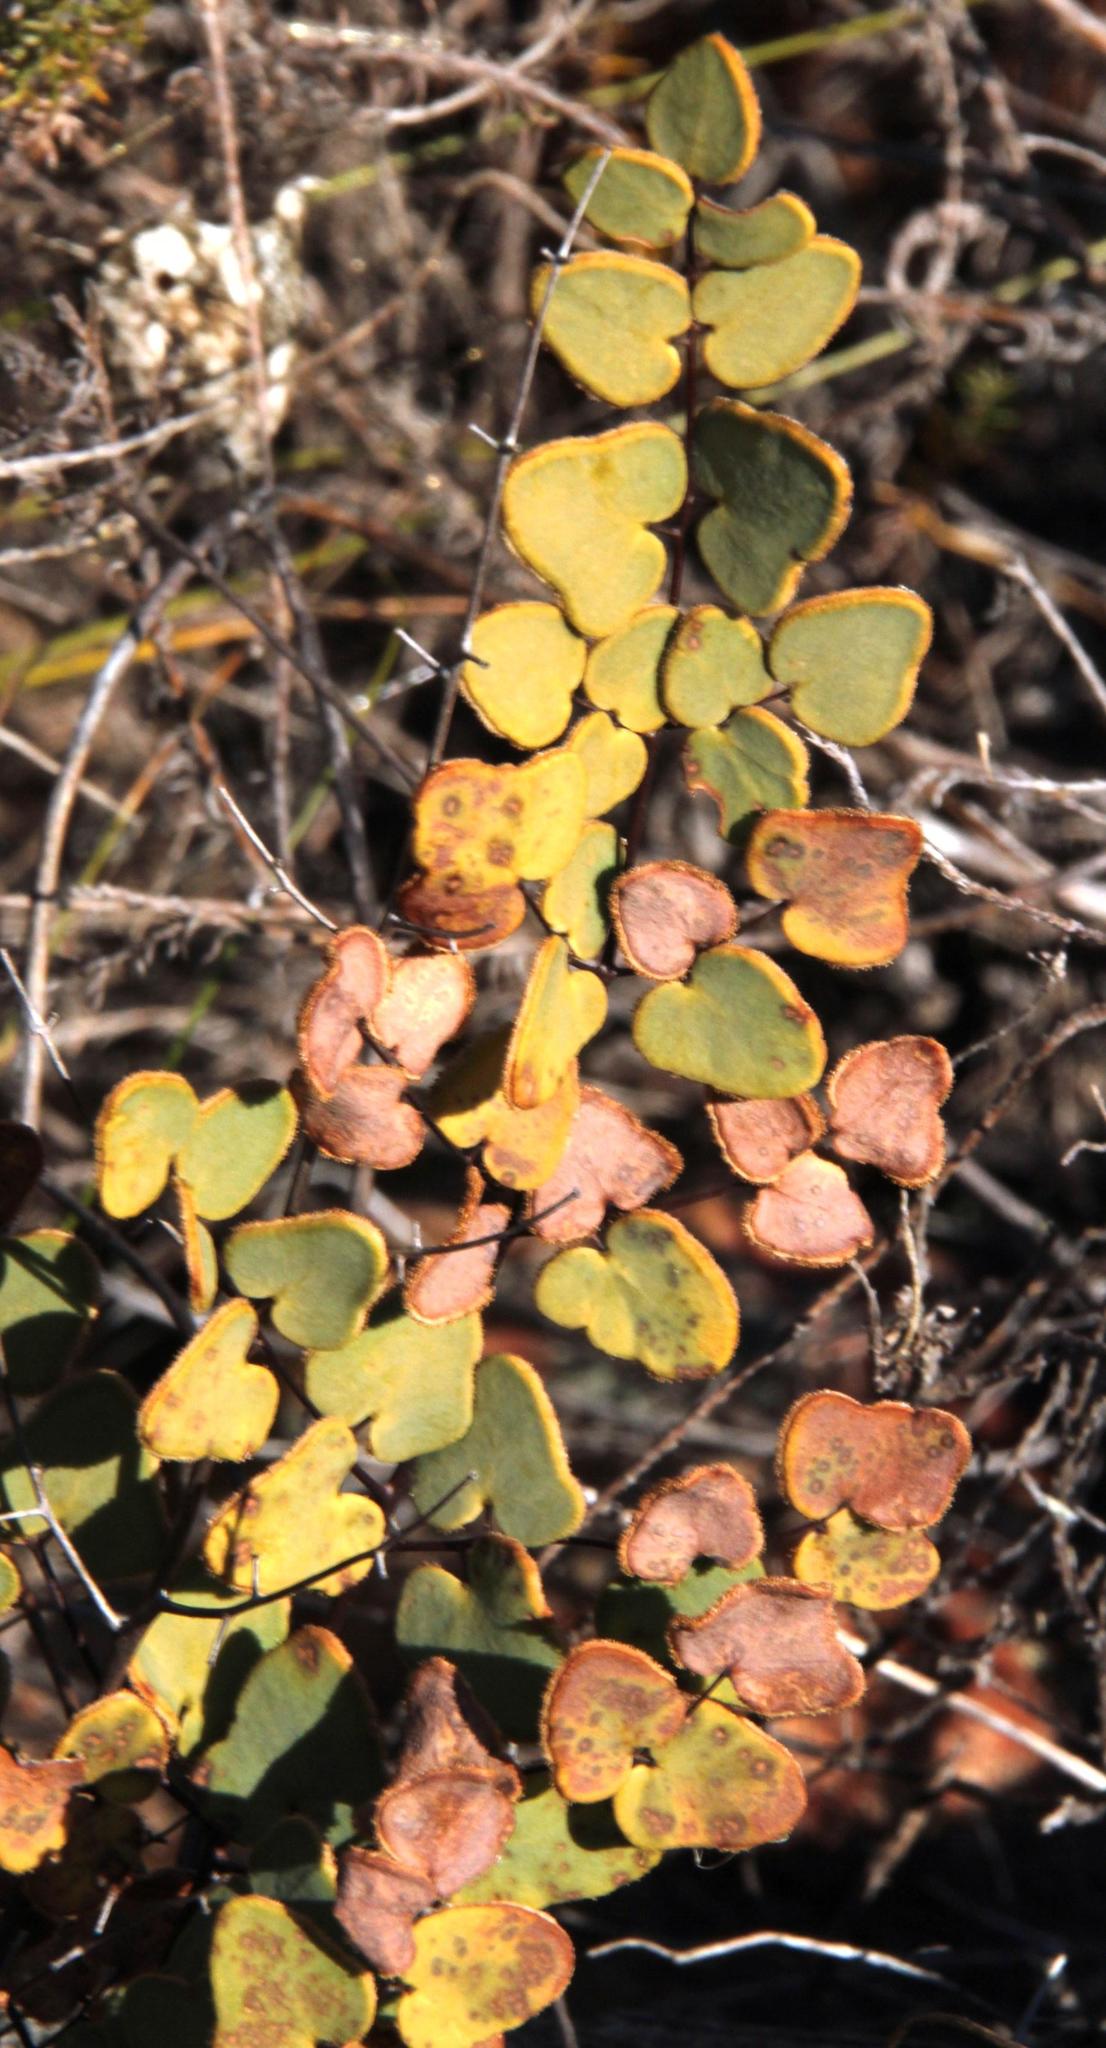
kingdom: Plantae
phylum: Tracheophyta
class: Polypodiopsida
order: Polypodiales
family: Pteridaceae
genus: Pellaea
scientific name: Pellaea calomelanos
